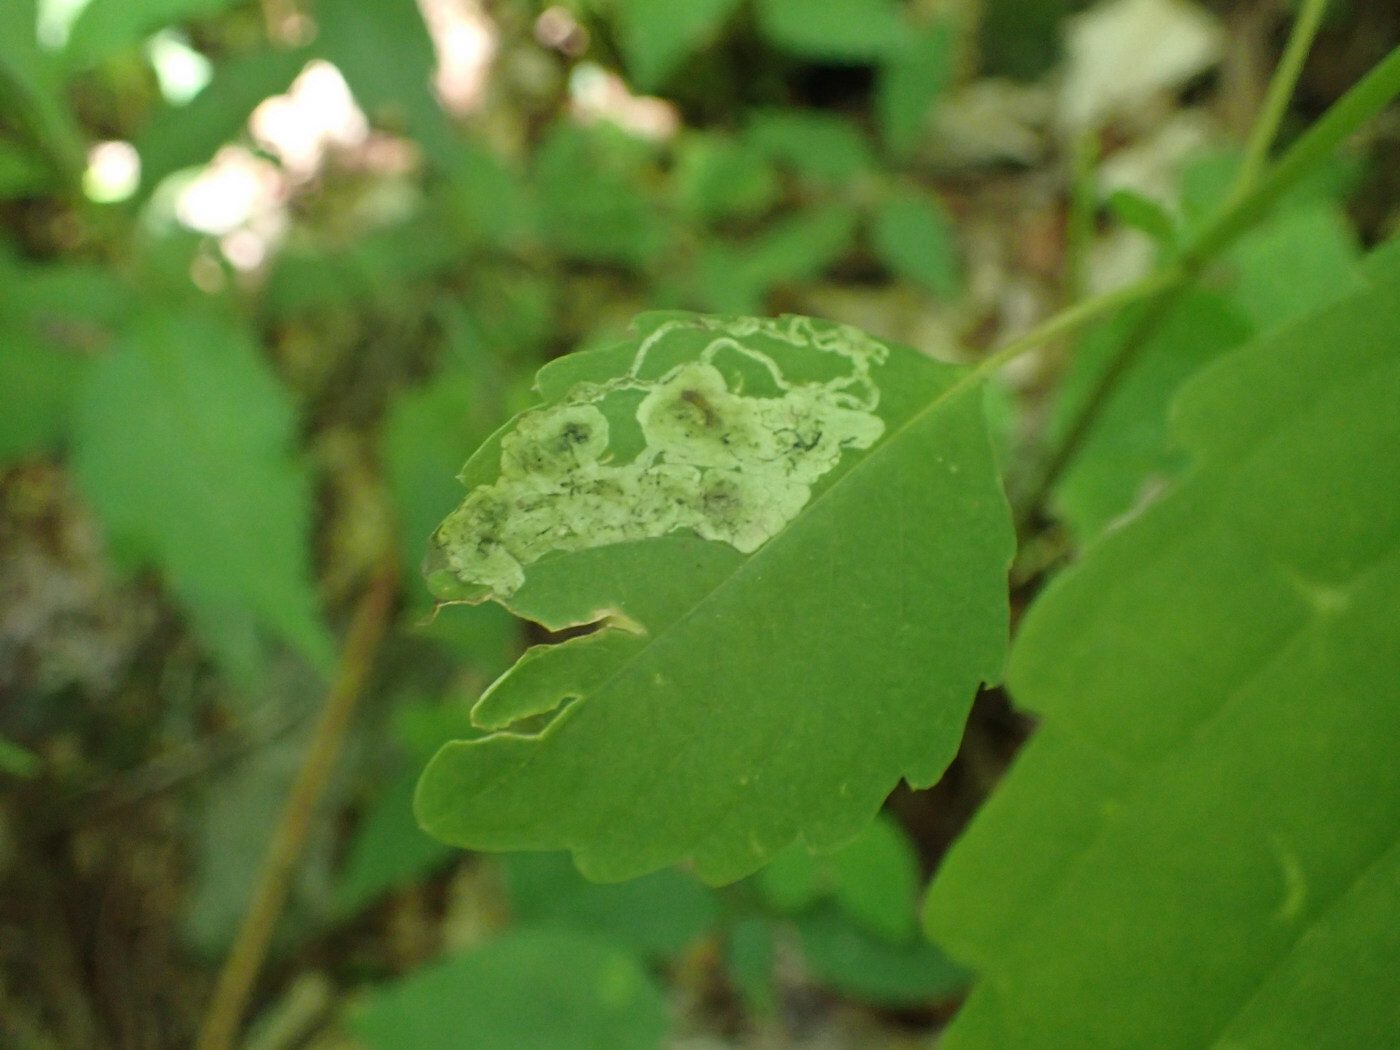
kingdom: Animalia
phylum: Arthropoda
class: Insecta
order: Diptera
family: Agromyzidae
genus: Phytoliriomyza
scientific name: Phytoliriomyza melampyga
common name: Jewelweed leaf-miner fly
